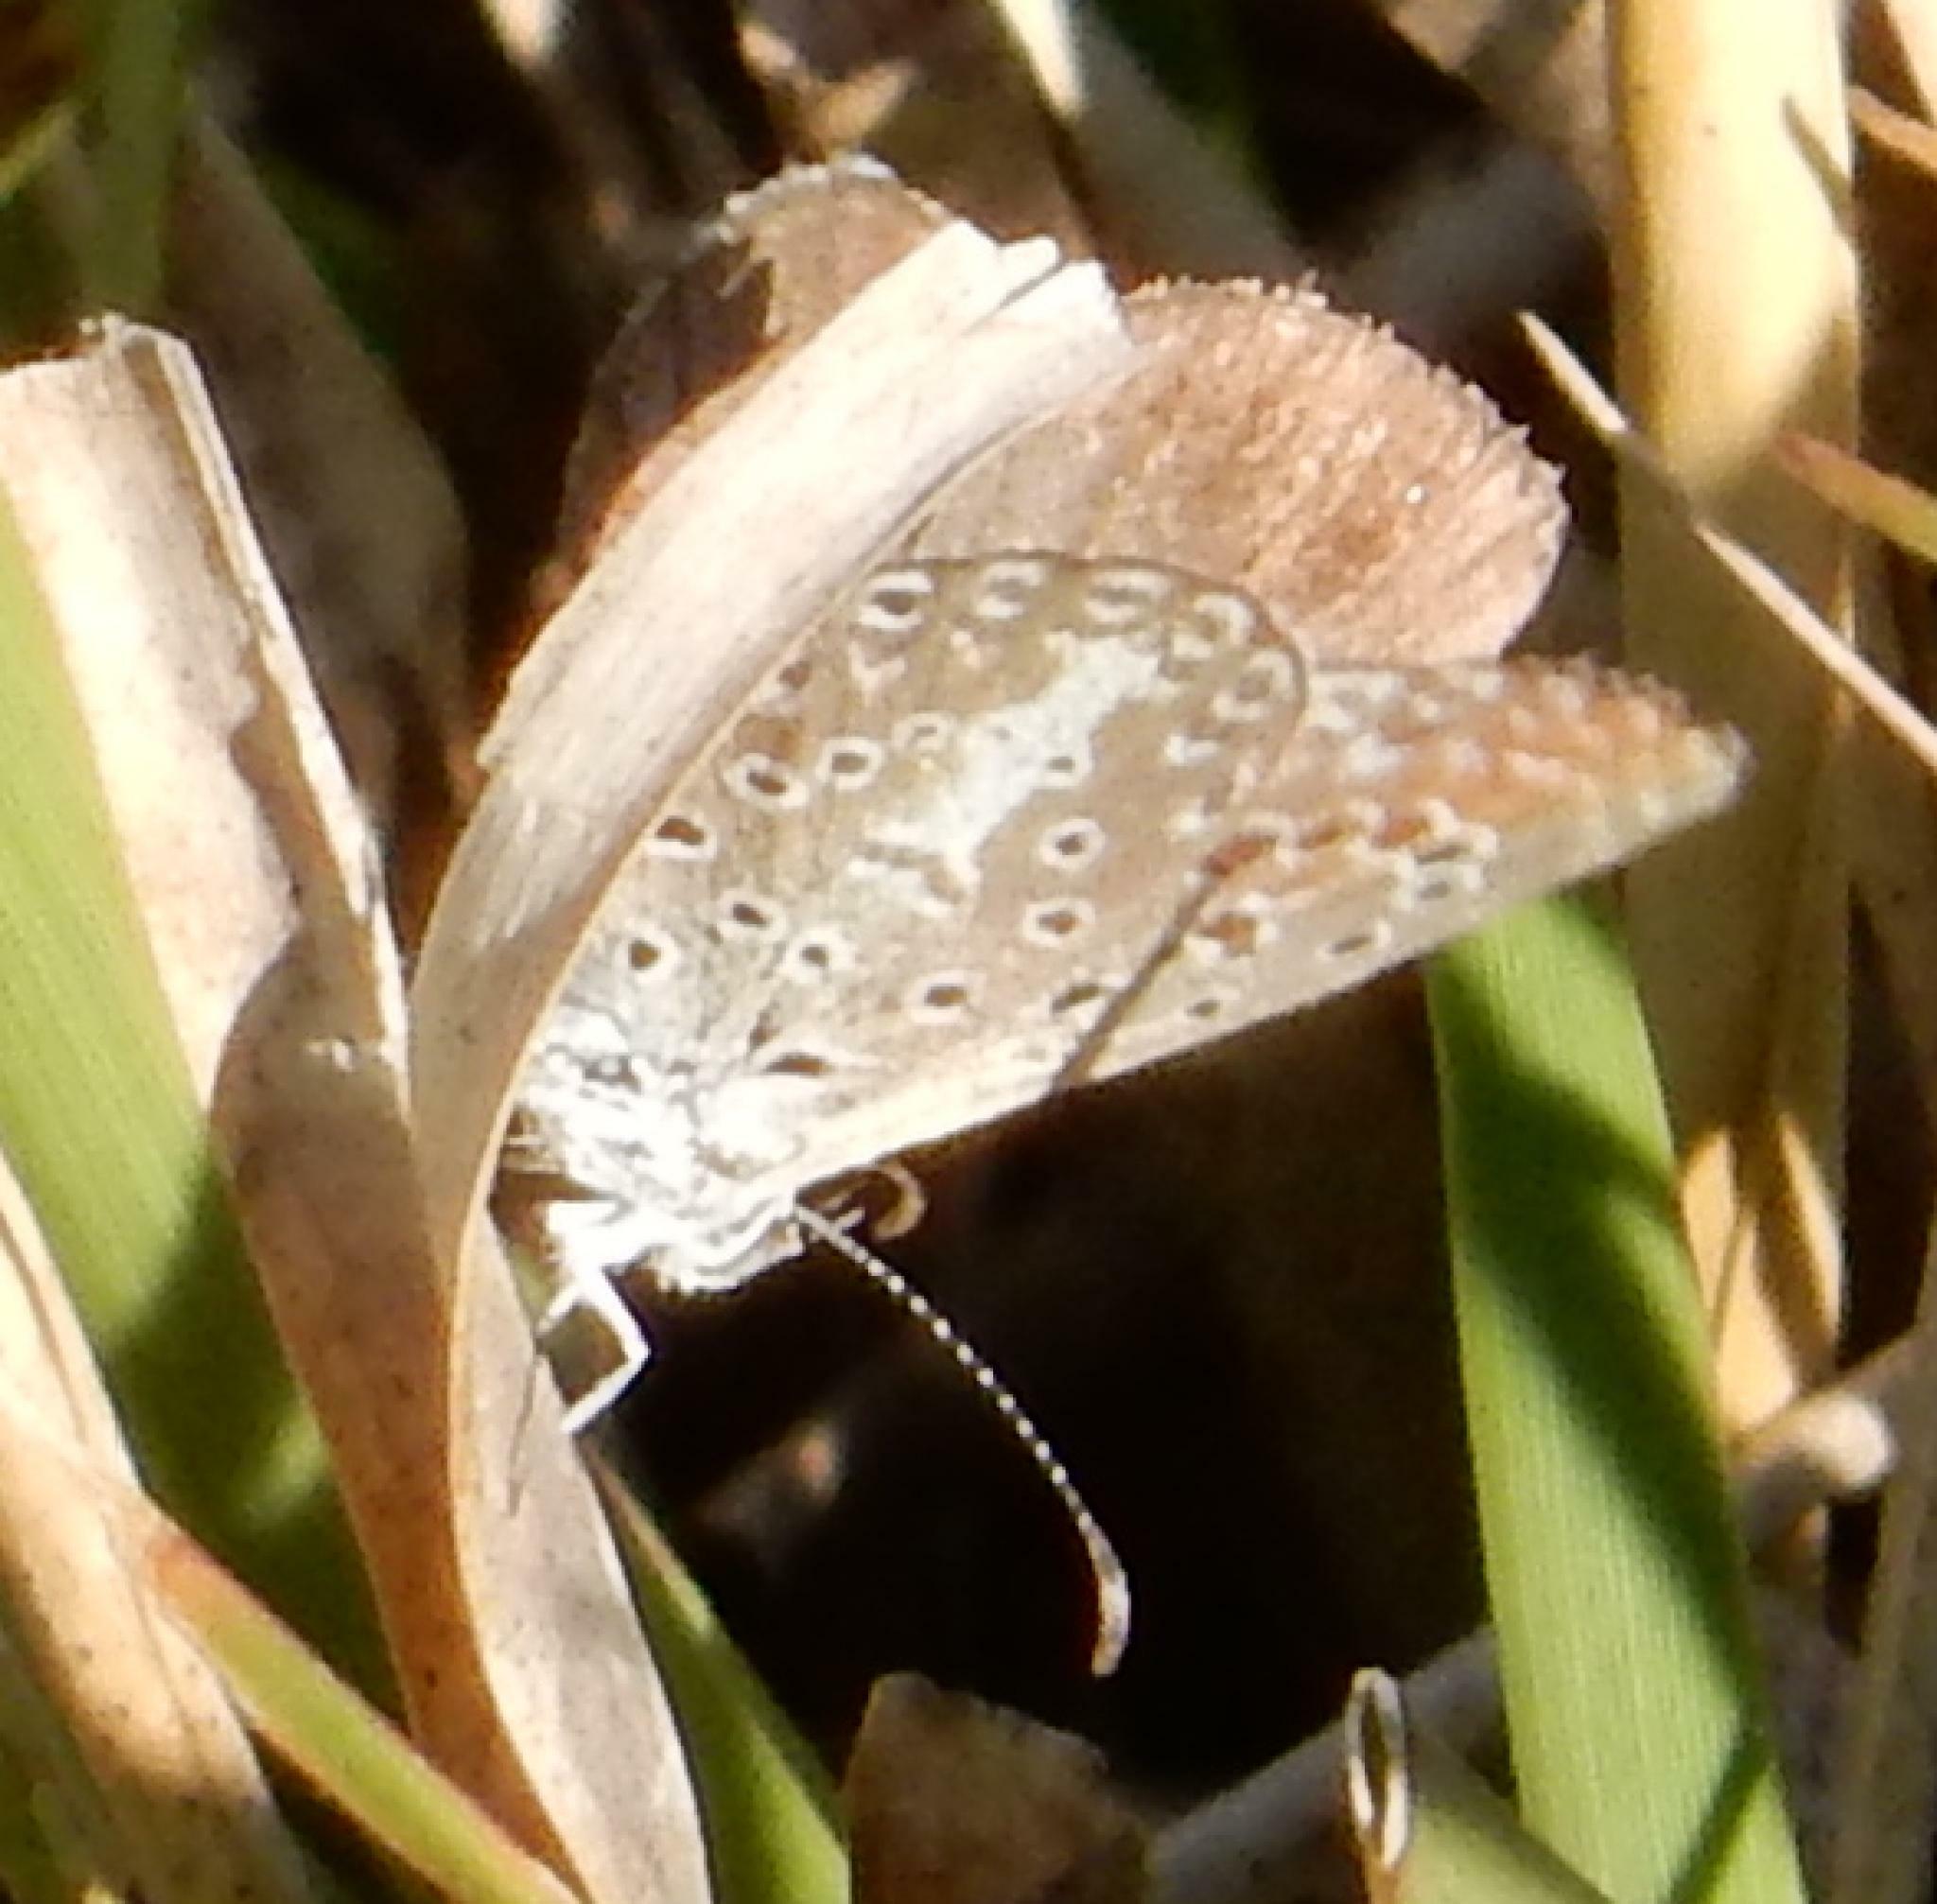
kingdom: Animalia
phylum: Arthropoda
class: Insecta
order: Lepidoptera
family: Lycaenidae
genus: Actizera
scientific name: Actizera lucida
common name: Rayed blue
